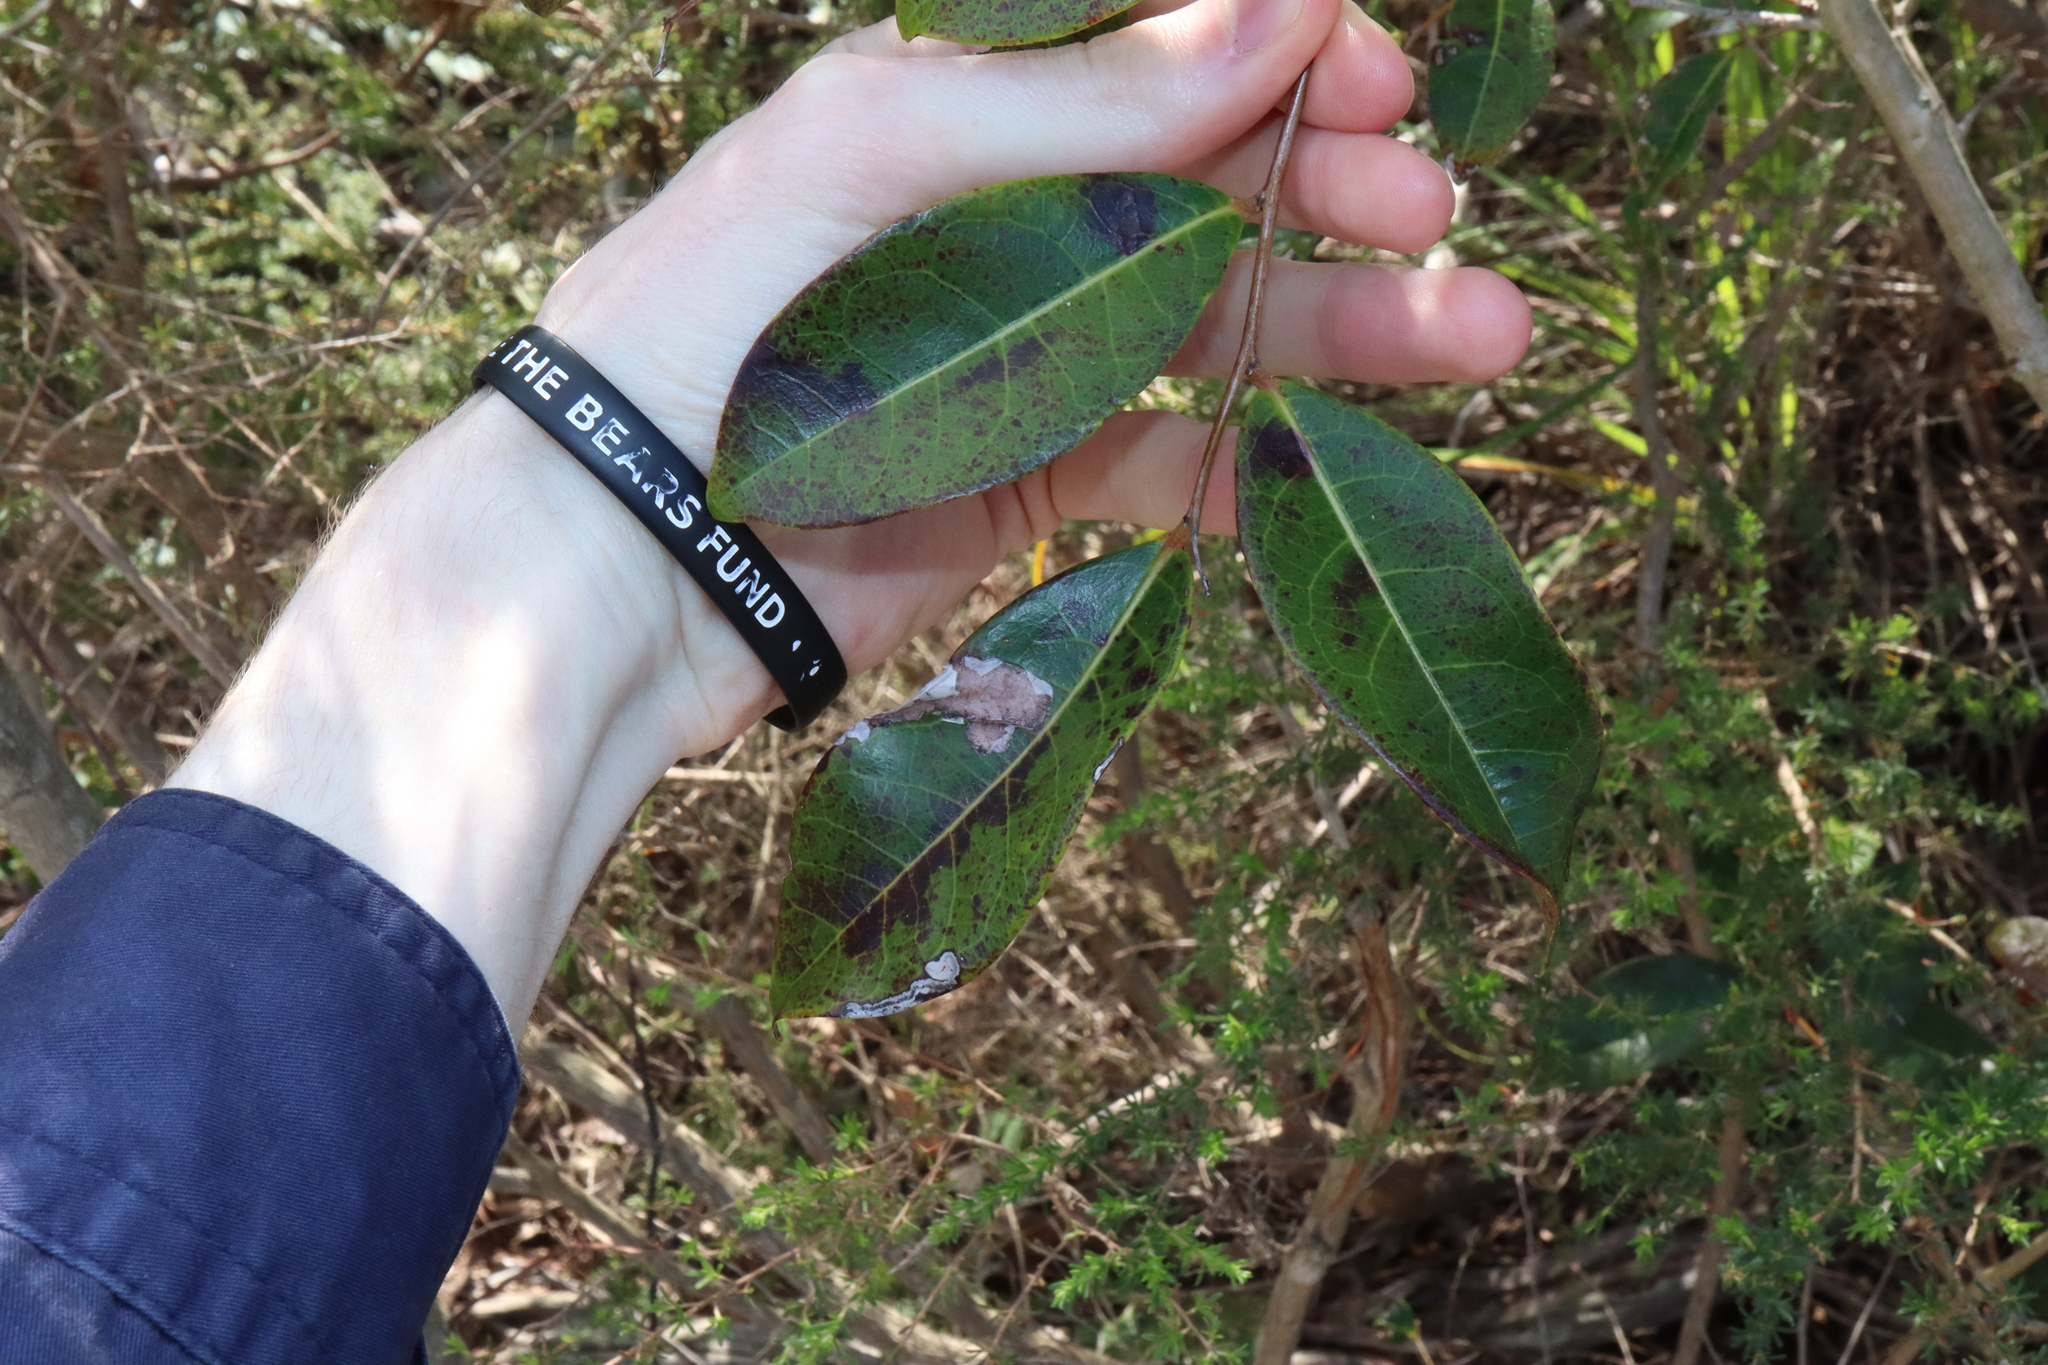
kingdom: Plantae
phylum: Tracheophyta
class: Magnoliopsida
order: Malpighiales
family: Phyllanthaceae
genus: Glochidion
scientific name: Glochidion ferdinandi
